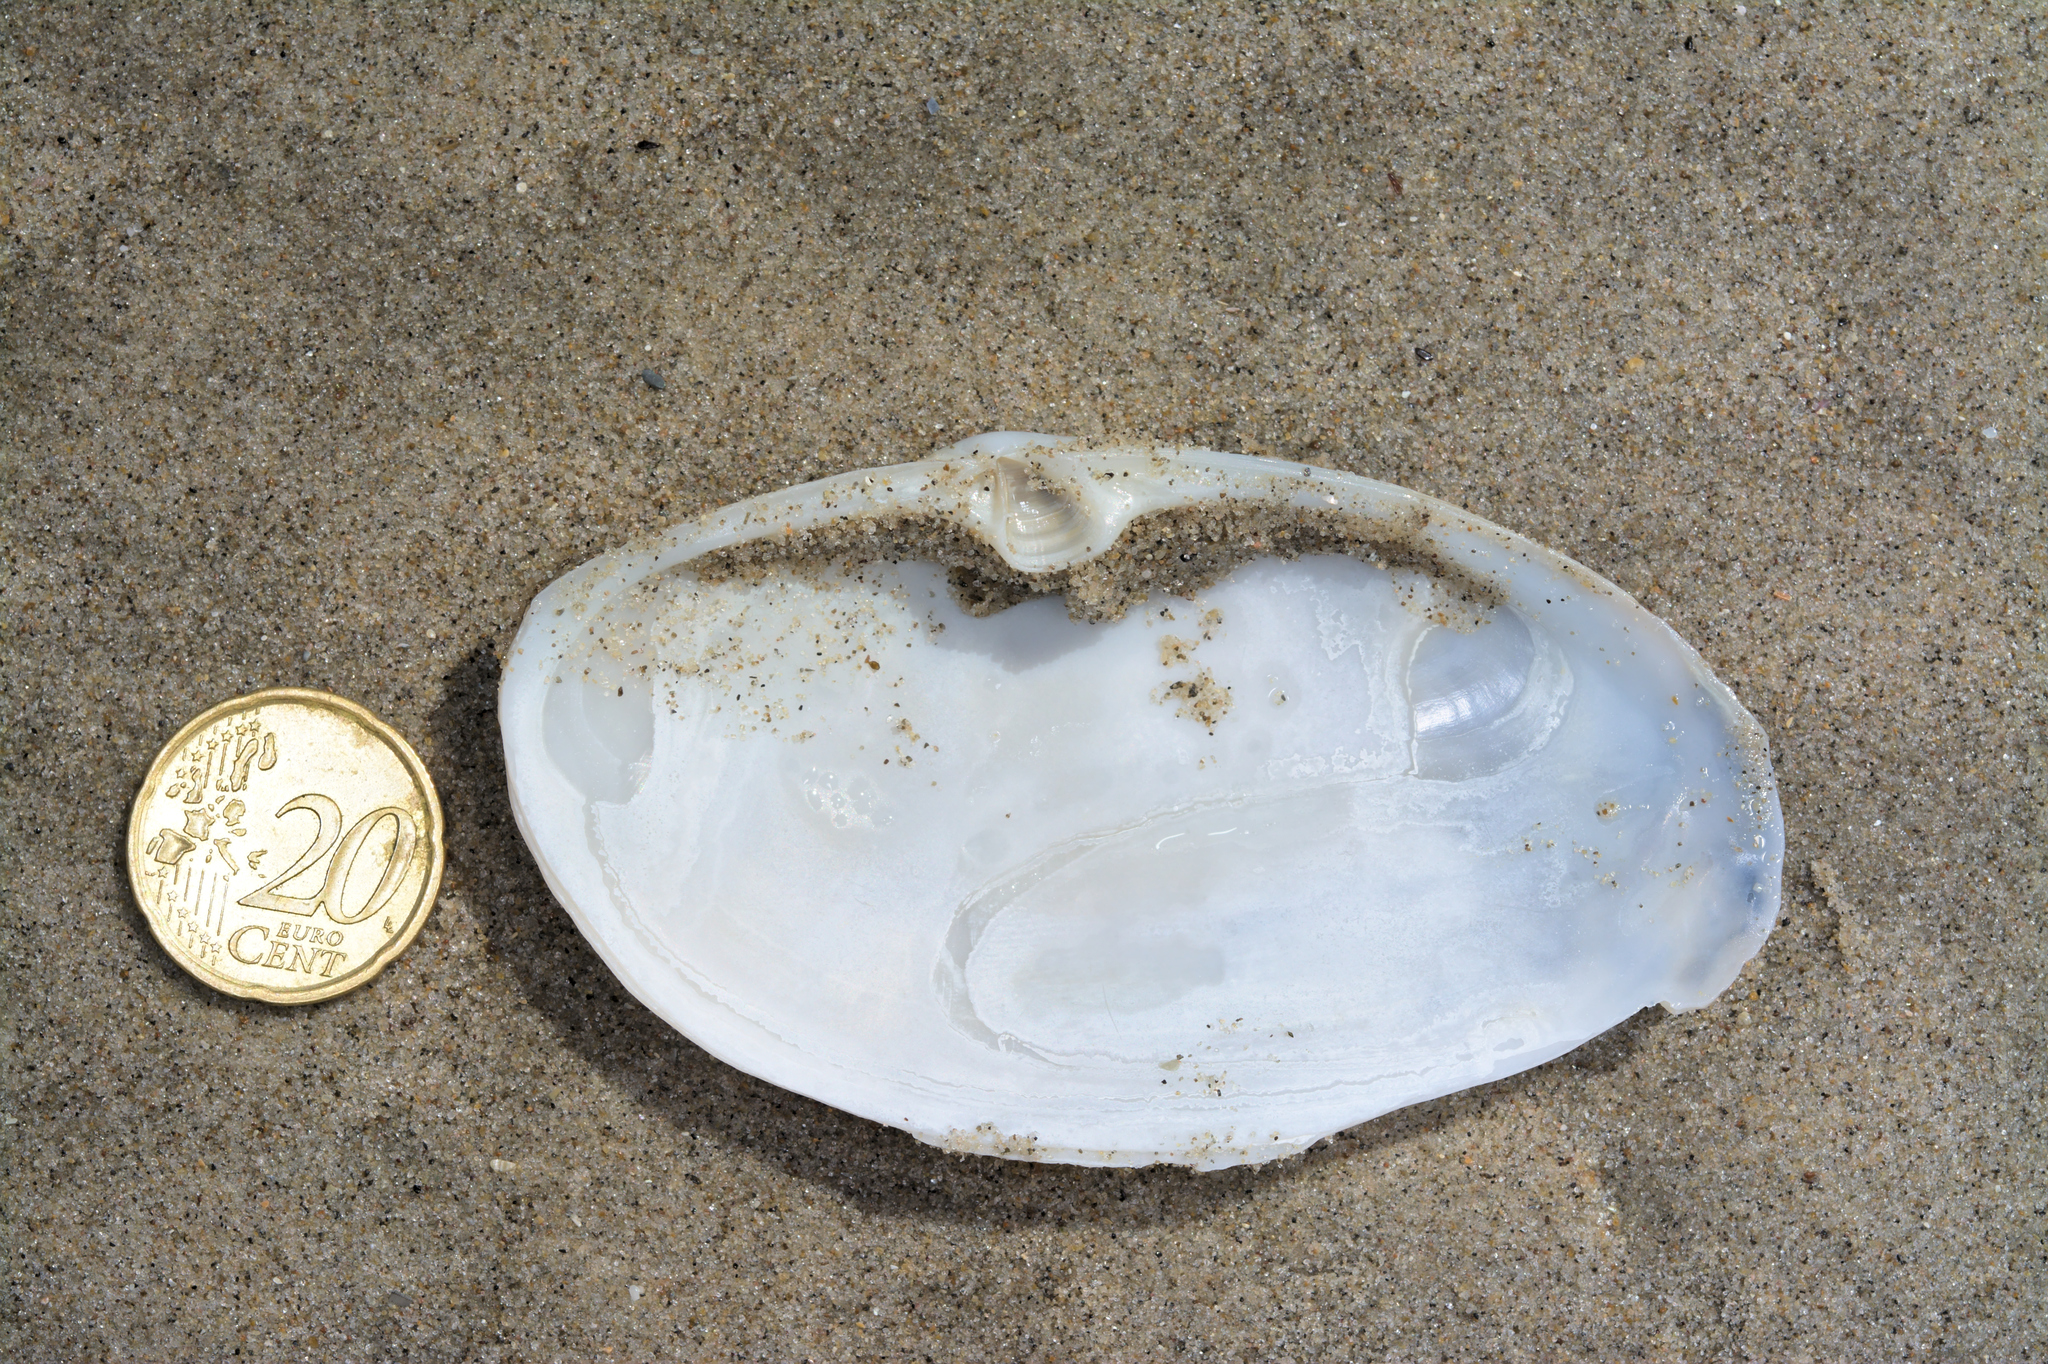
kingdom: Animalia
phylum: Mollusca
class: Bivalvia
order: Venerida
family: Mactridae
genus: Lutraria
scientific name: Lutraria lutraria
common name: Common otter shell
